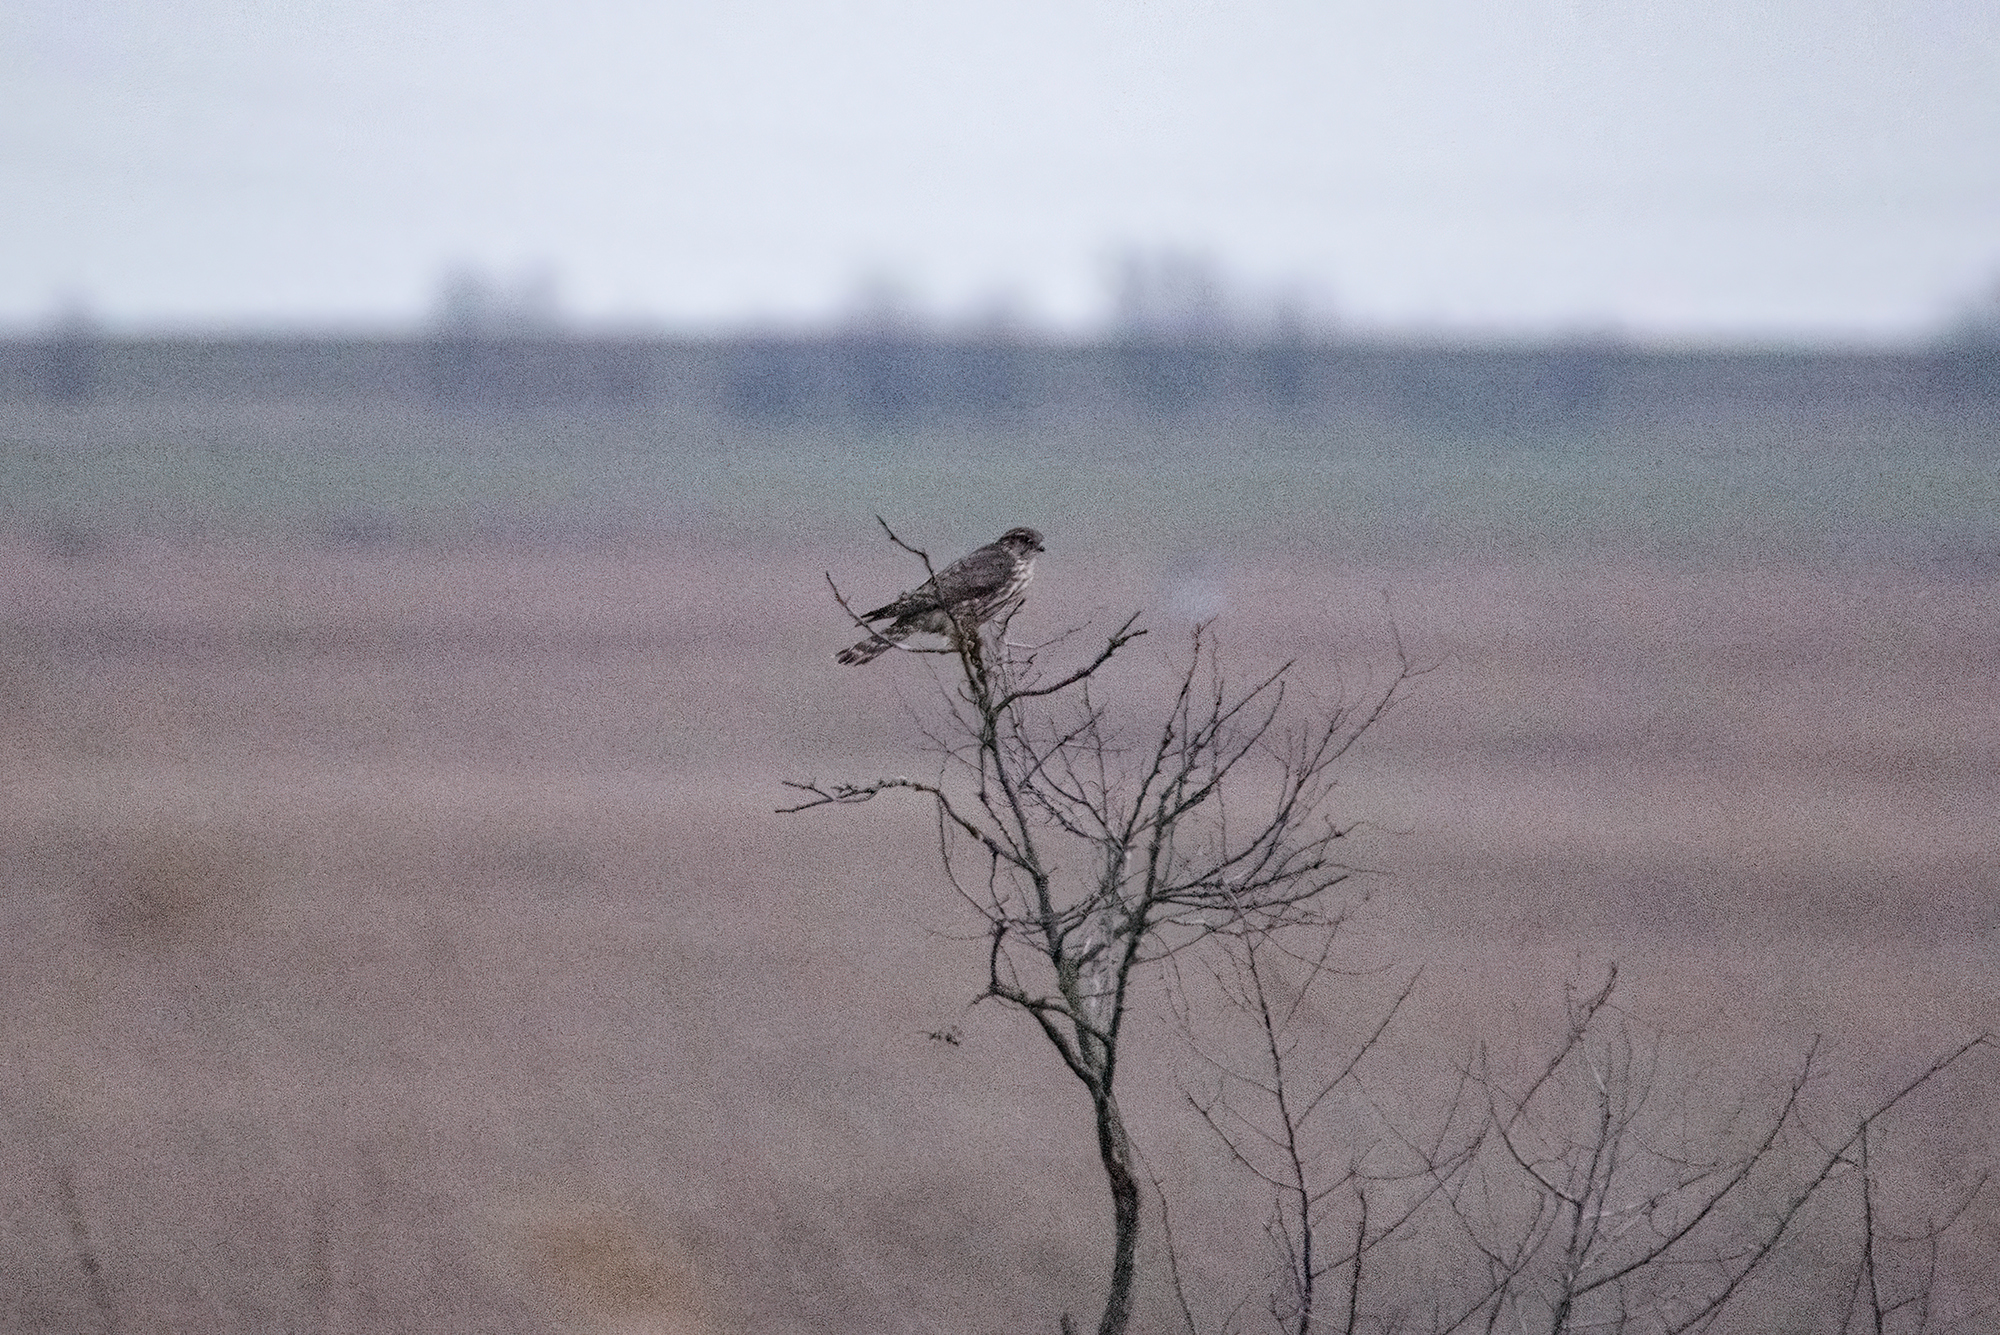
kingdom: Animalia
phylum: Chordata
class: Aves
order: Falconiformes
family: Falconidae
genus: Falco
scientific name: Falco columbarius
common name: Merlin
